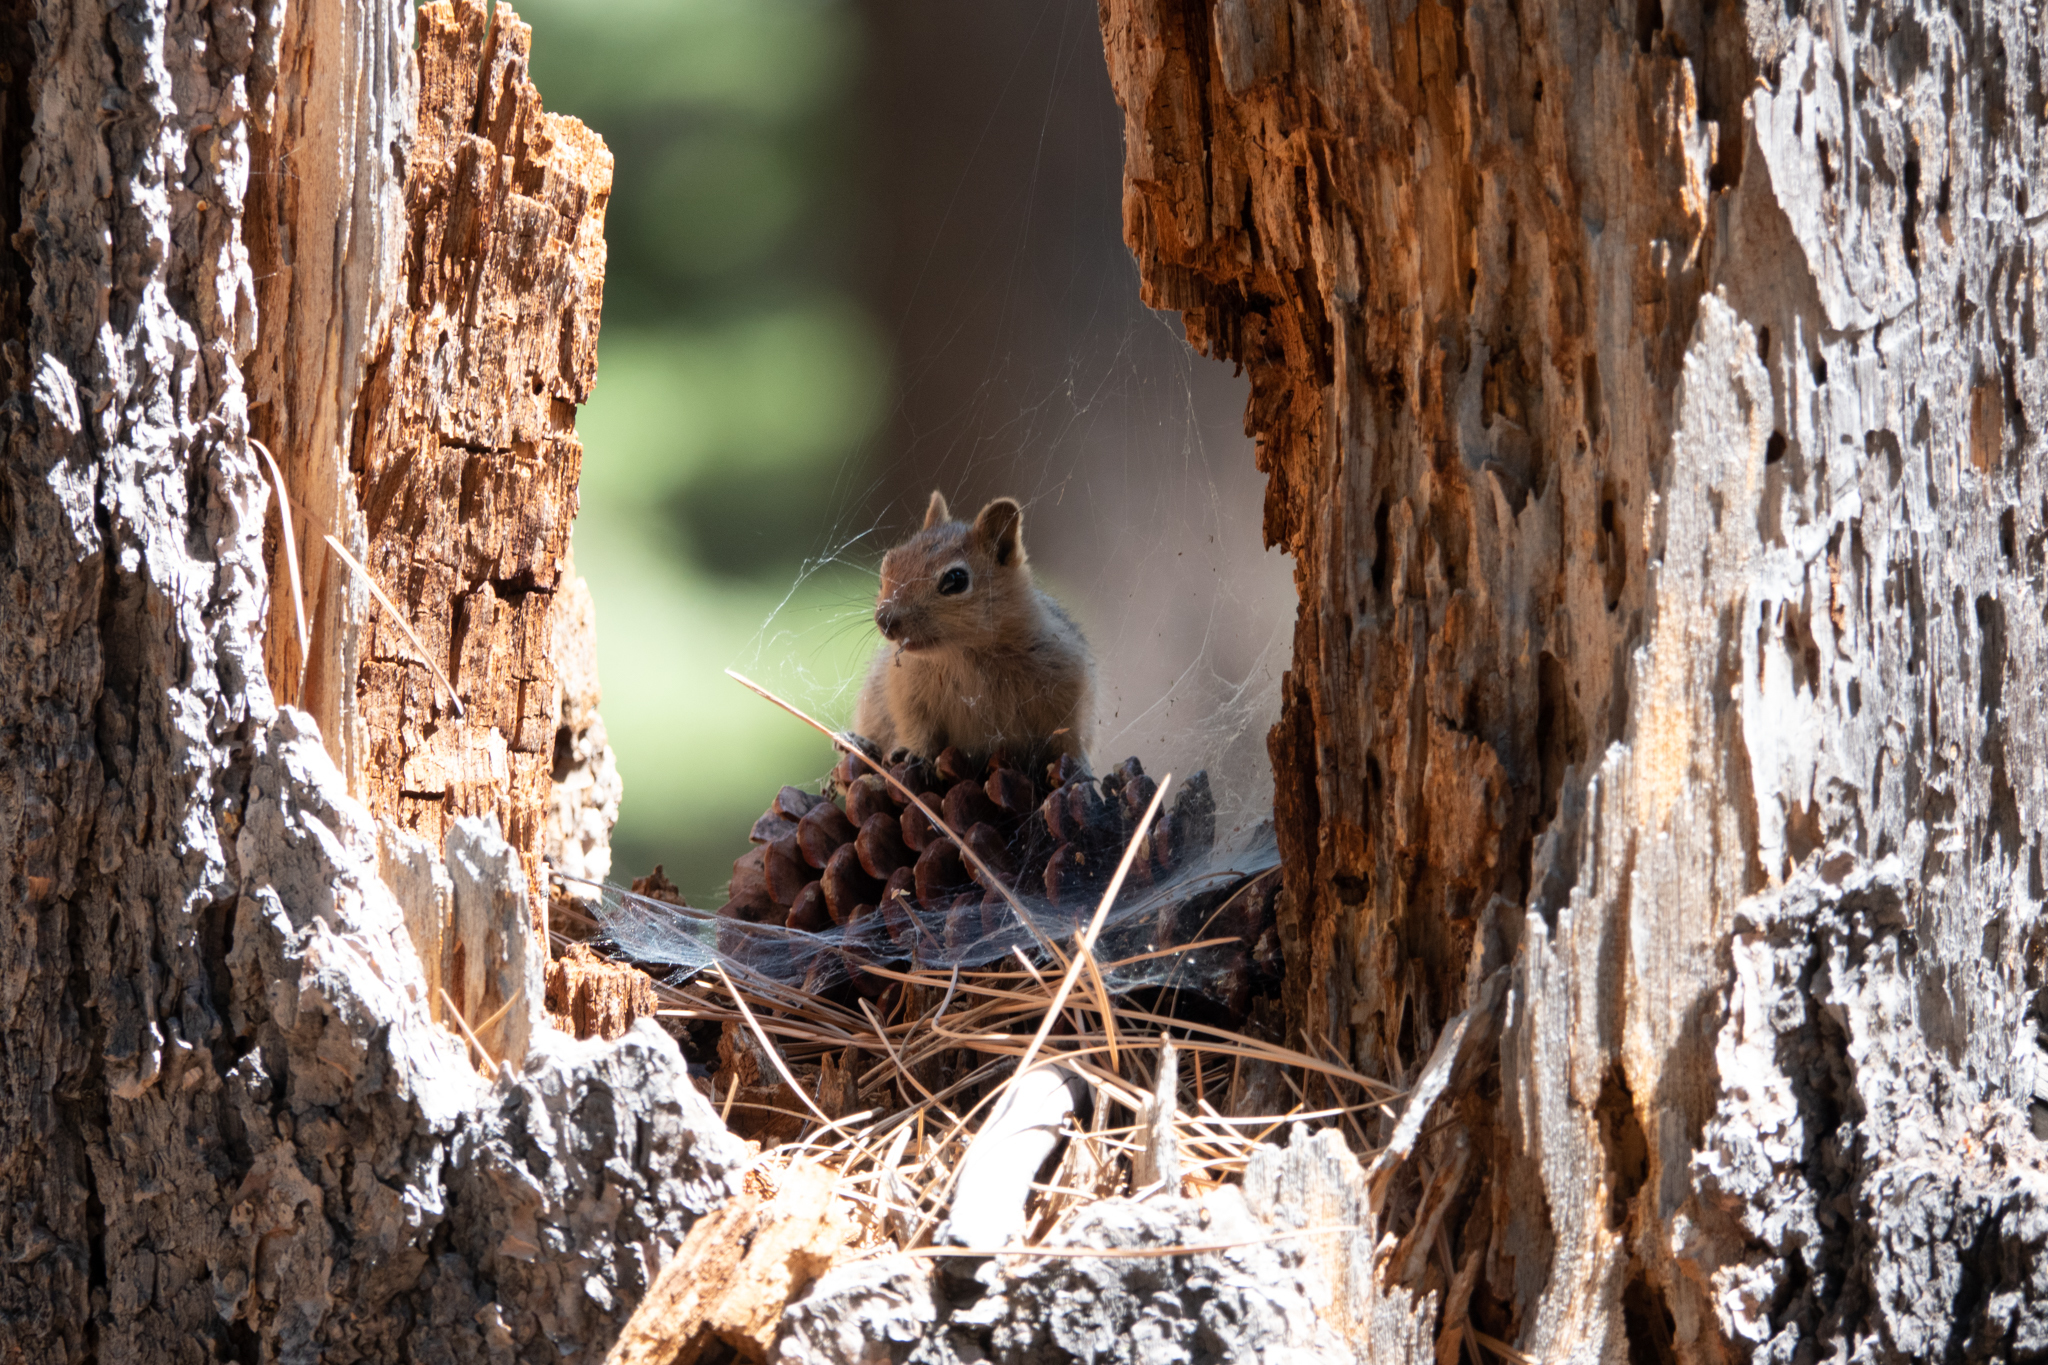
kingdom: Animalia
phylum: Chordata
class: Mammalia
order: Rodentia
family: Sciuridae
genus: Callospermophilus
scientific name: Callospermophilus lateralis
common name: Golden-mantled ground squirrel
